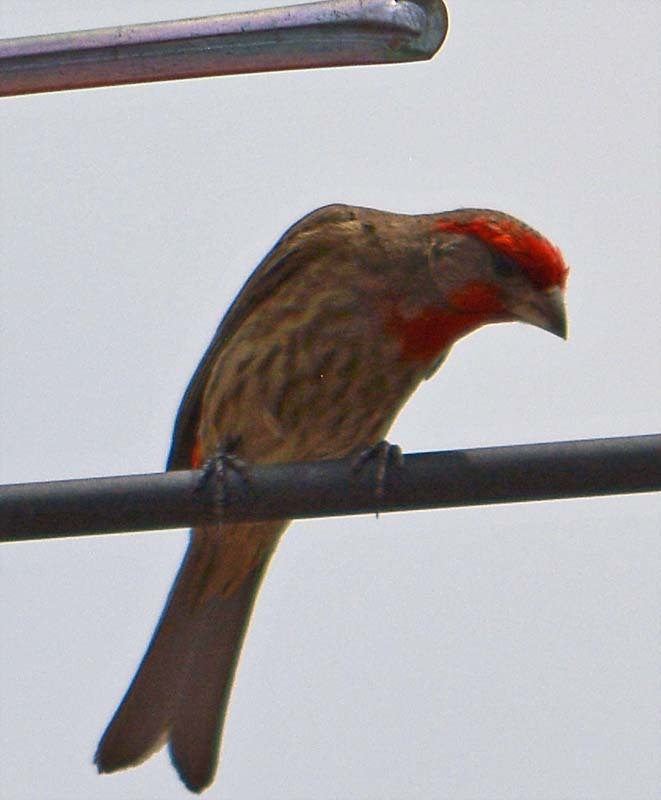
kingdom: Animalia
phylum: Chordata
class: Aves
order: Passeriformes
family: Fringillidae
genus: Haemorhous
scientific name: Haemorhous mexicanus
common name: House finch
